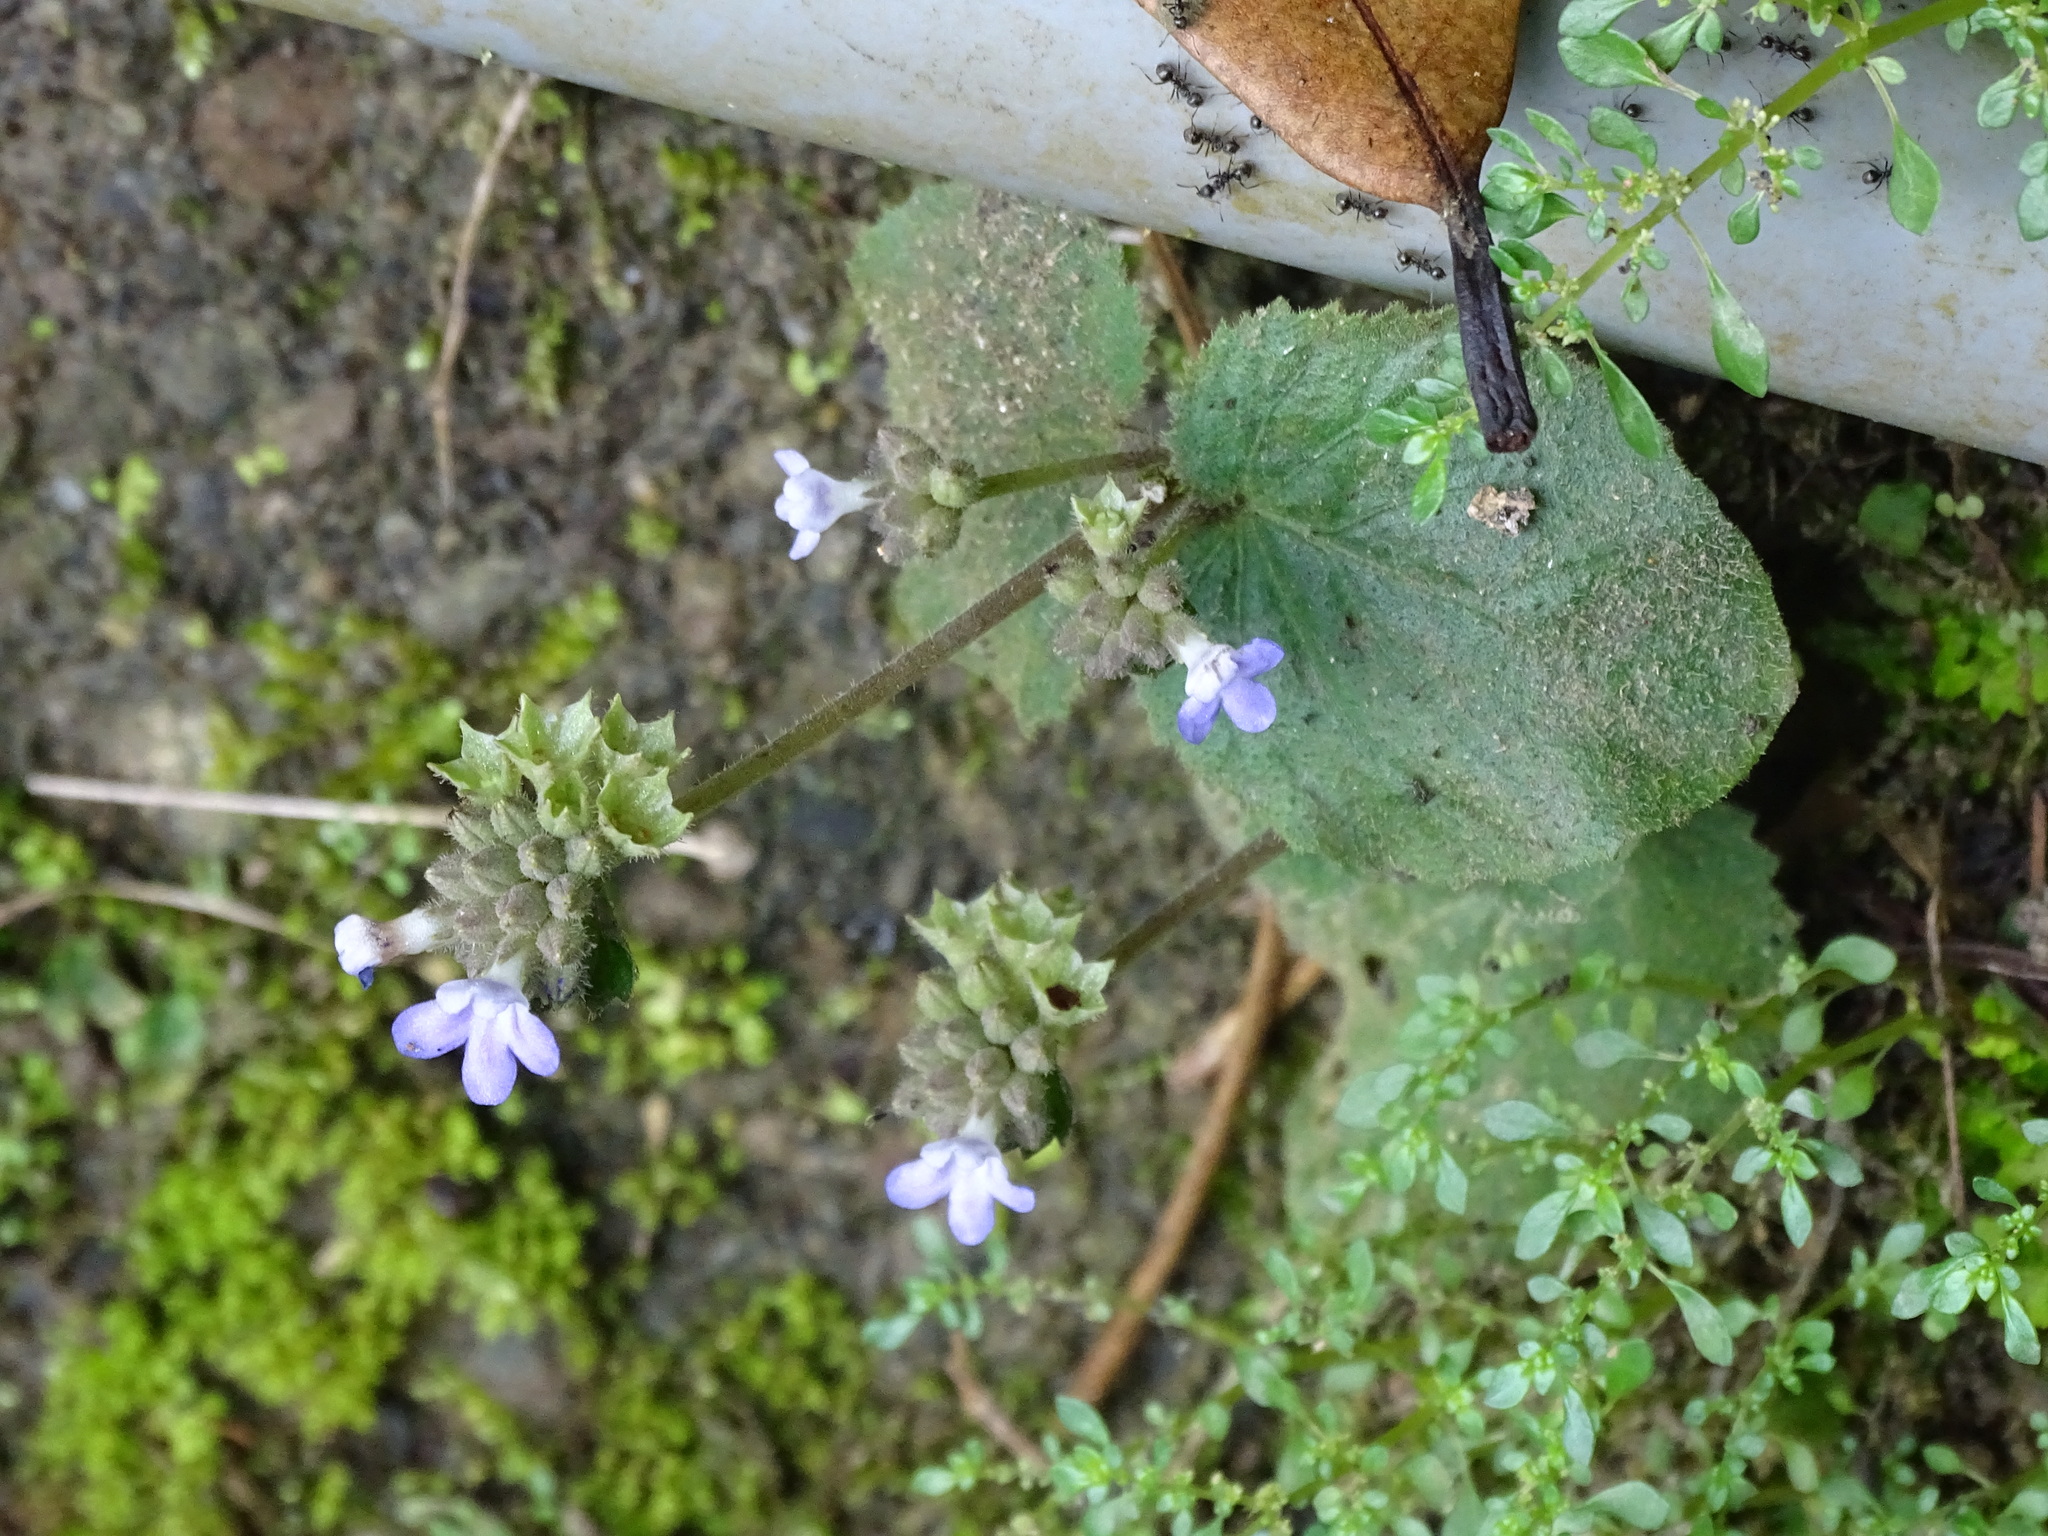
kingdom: Plantae
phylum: Tracheophyta
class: Magnoliopsida
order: Lamiales
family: Gesneriaceae
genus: Epithema
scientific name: Epithema ceylanicum
